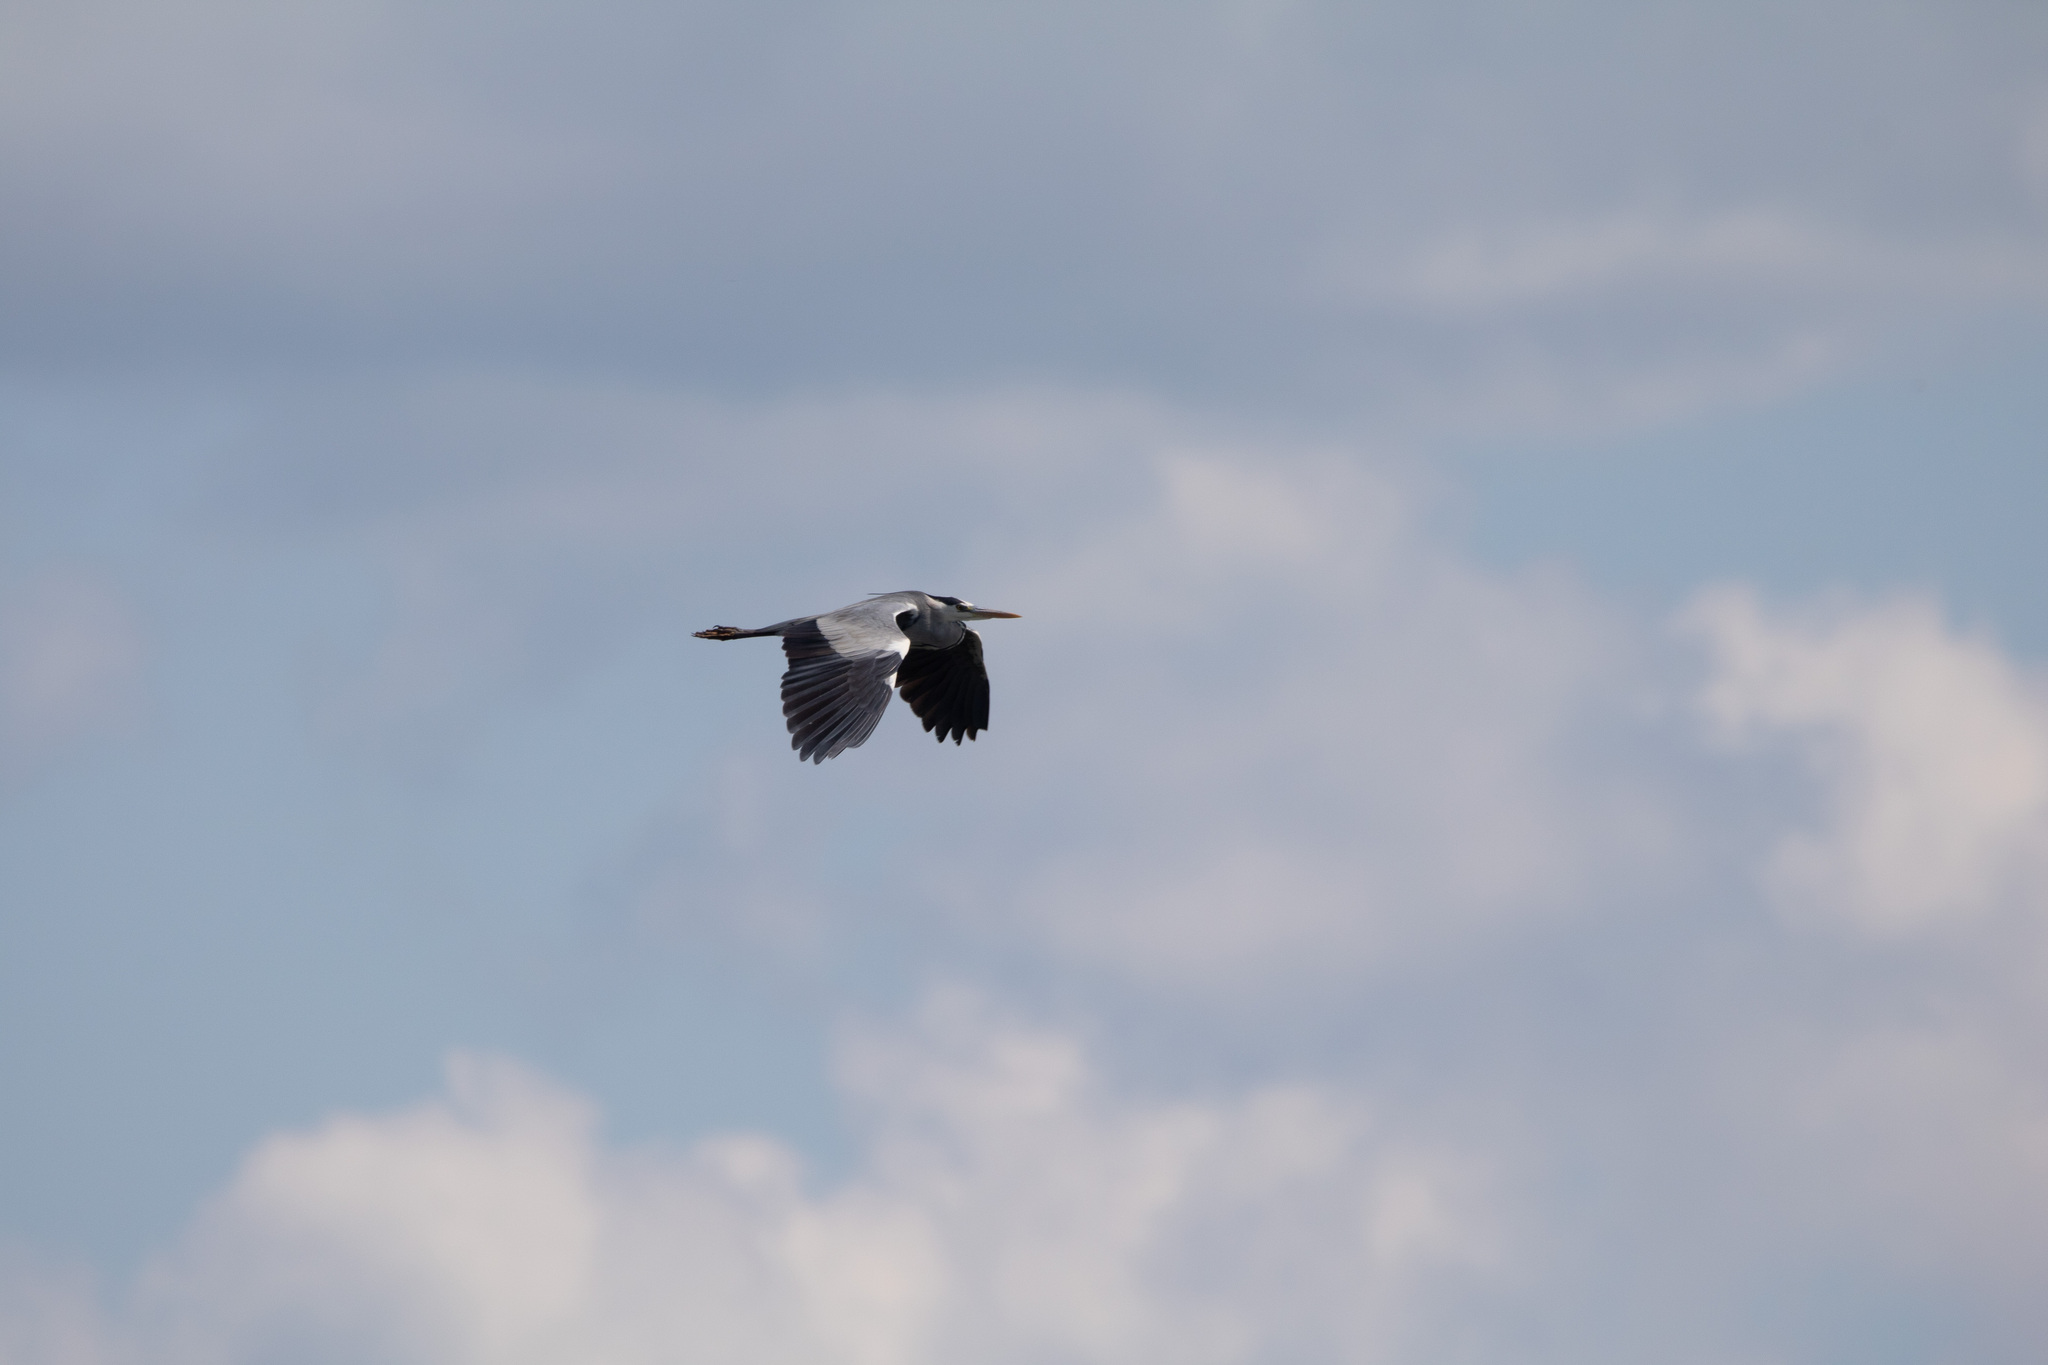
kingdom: Animalia
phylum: Chordata
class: Aves
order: Pelecaniformes
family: Ardeidae
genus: Ardea
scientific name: Ardea cinerea
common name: Grey heron
